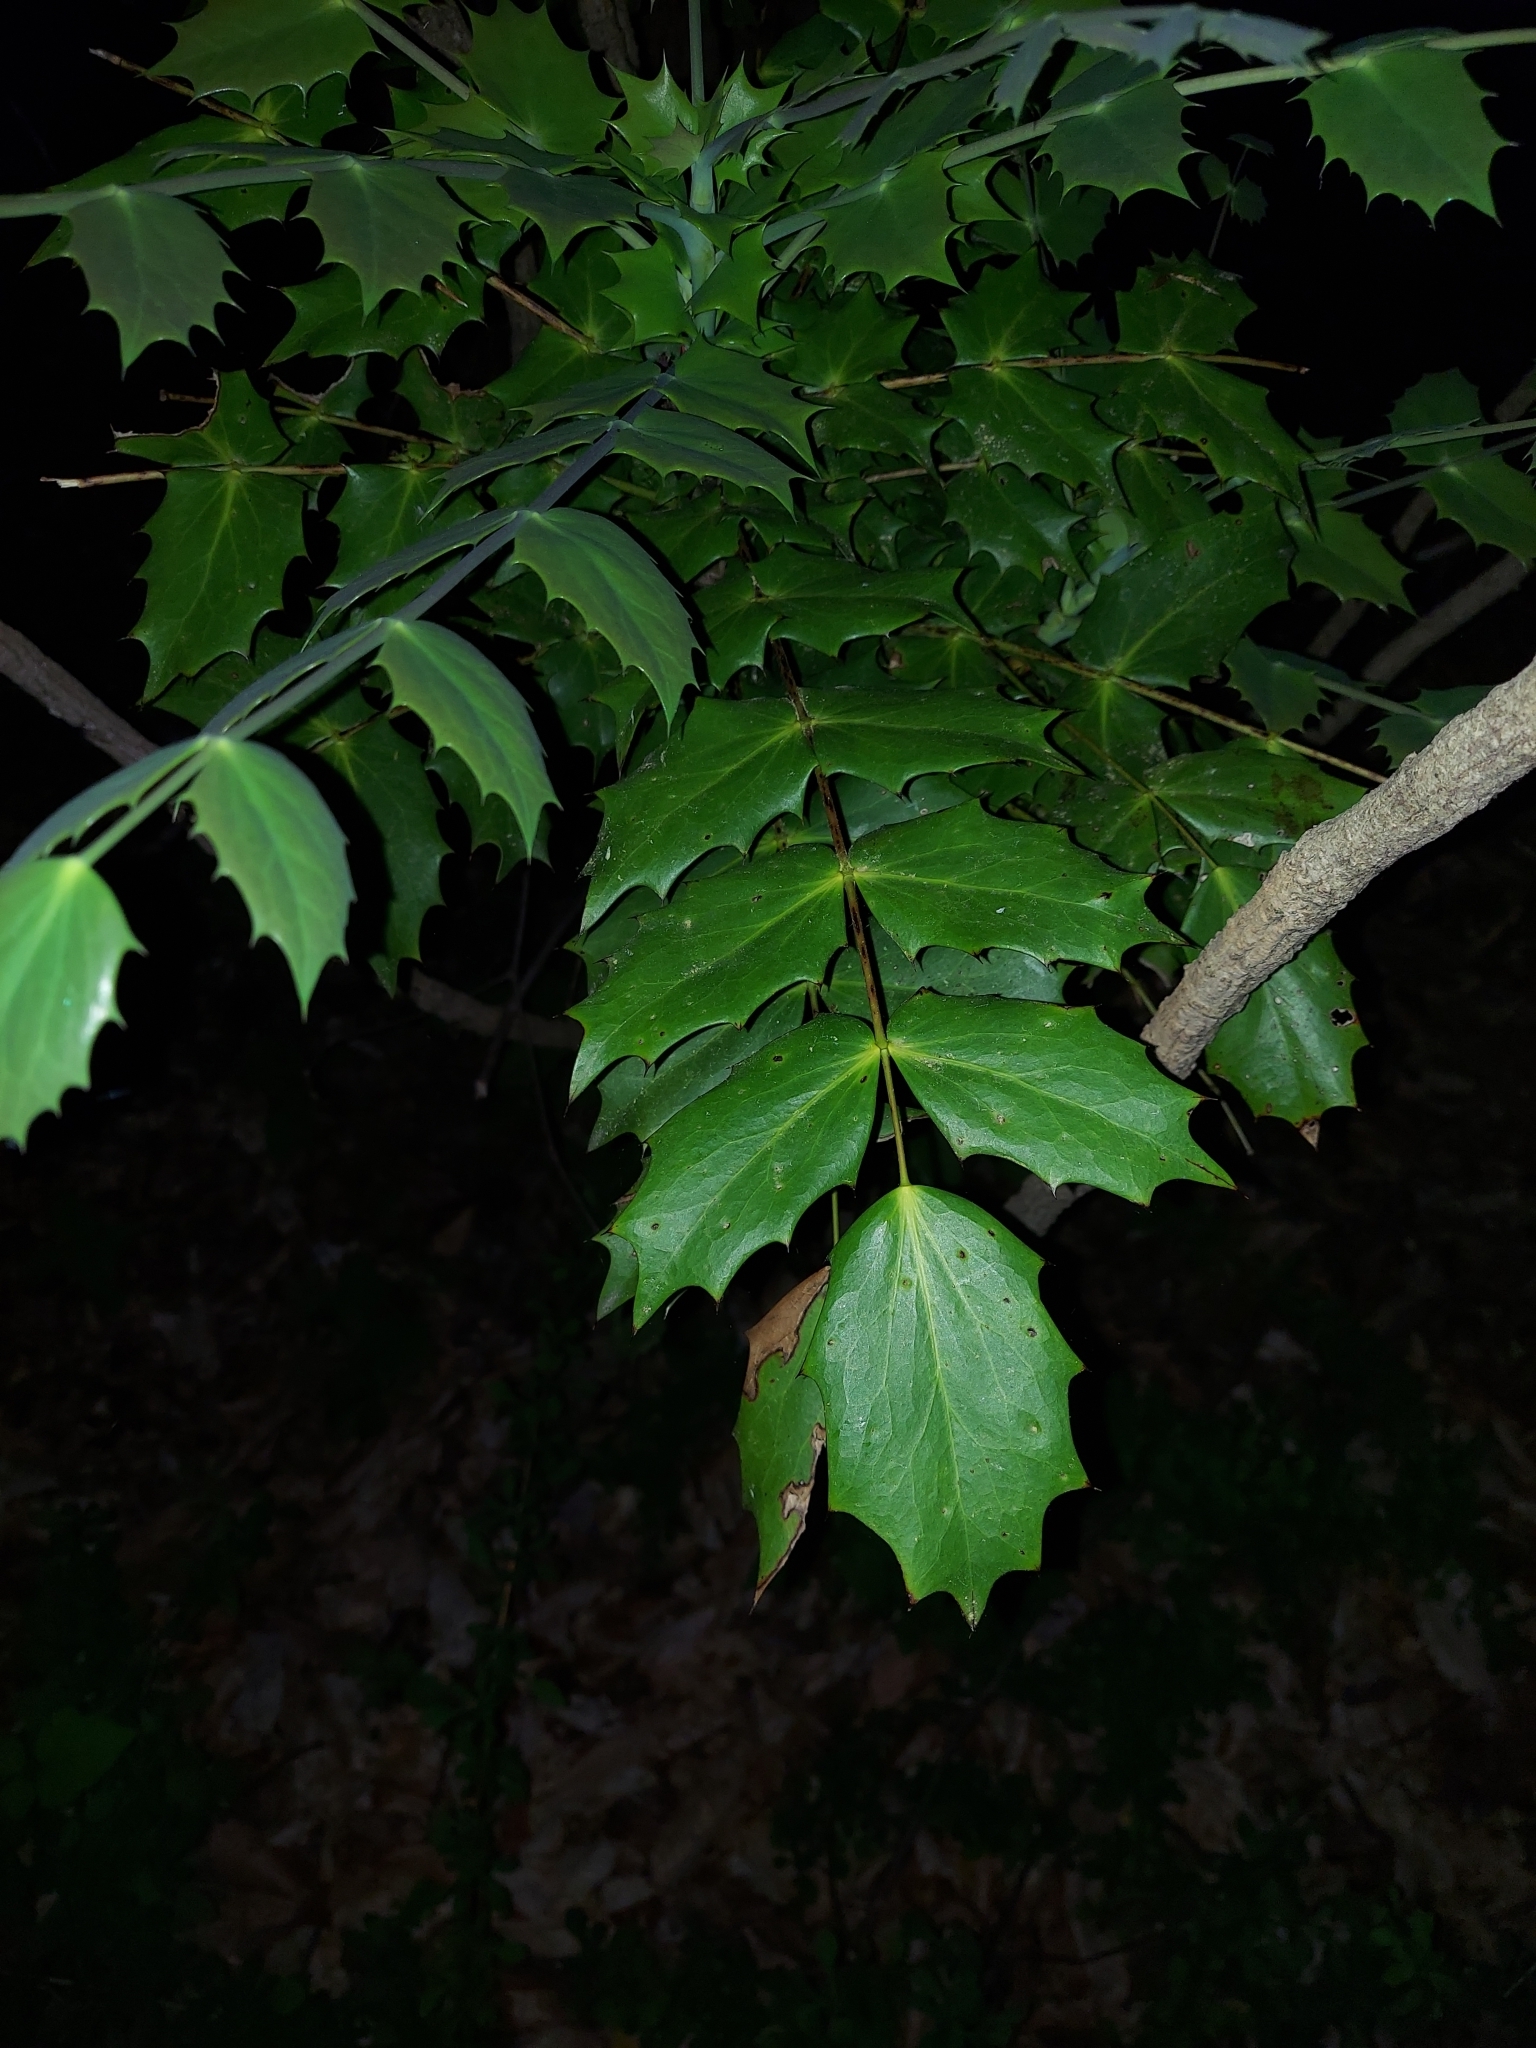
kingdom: Plantae
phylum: Tracheophyta
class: Magnoliopsida
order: Ranunculales
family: Berberidaceae
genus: Mahonia
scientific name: Mahonia bealei
